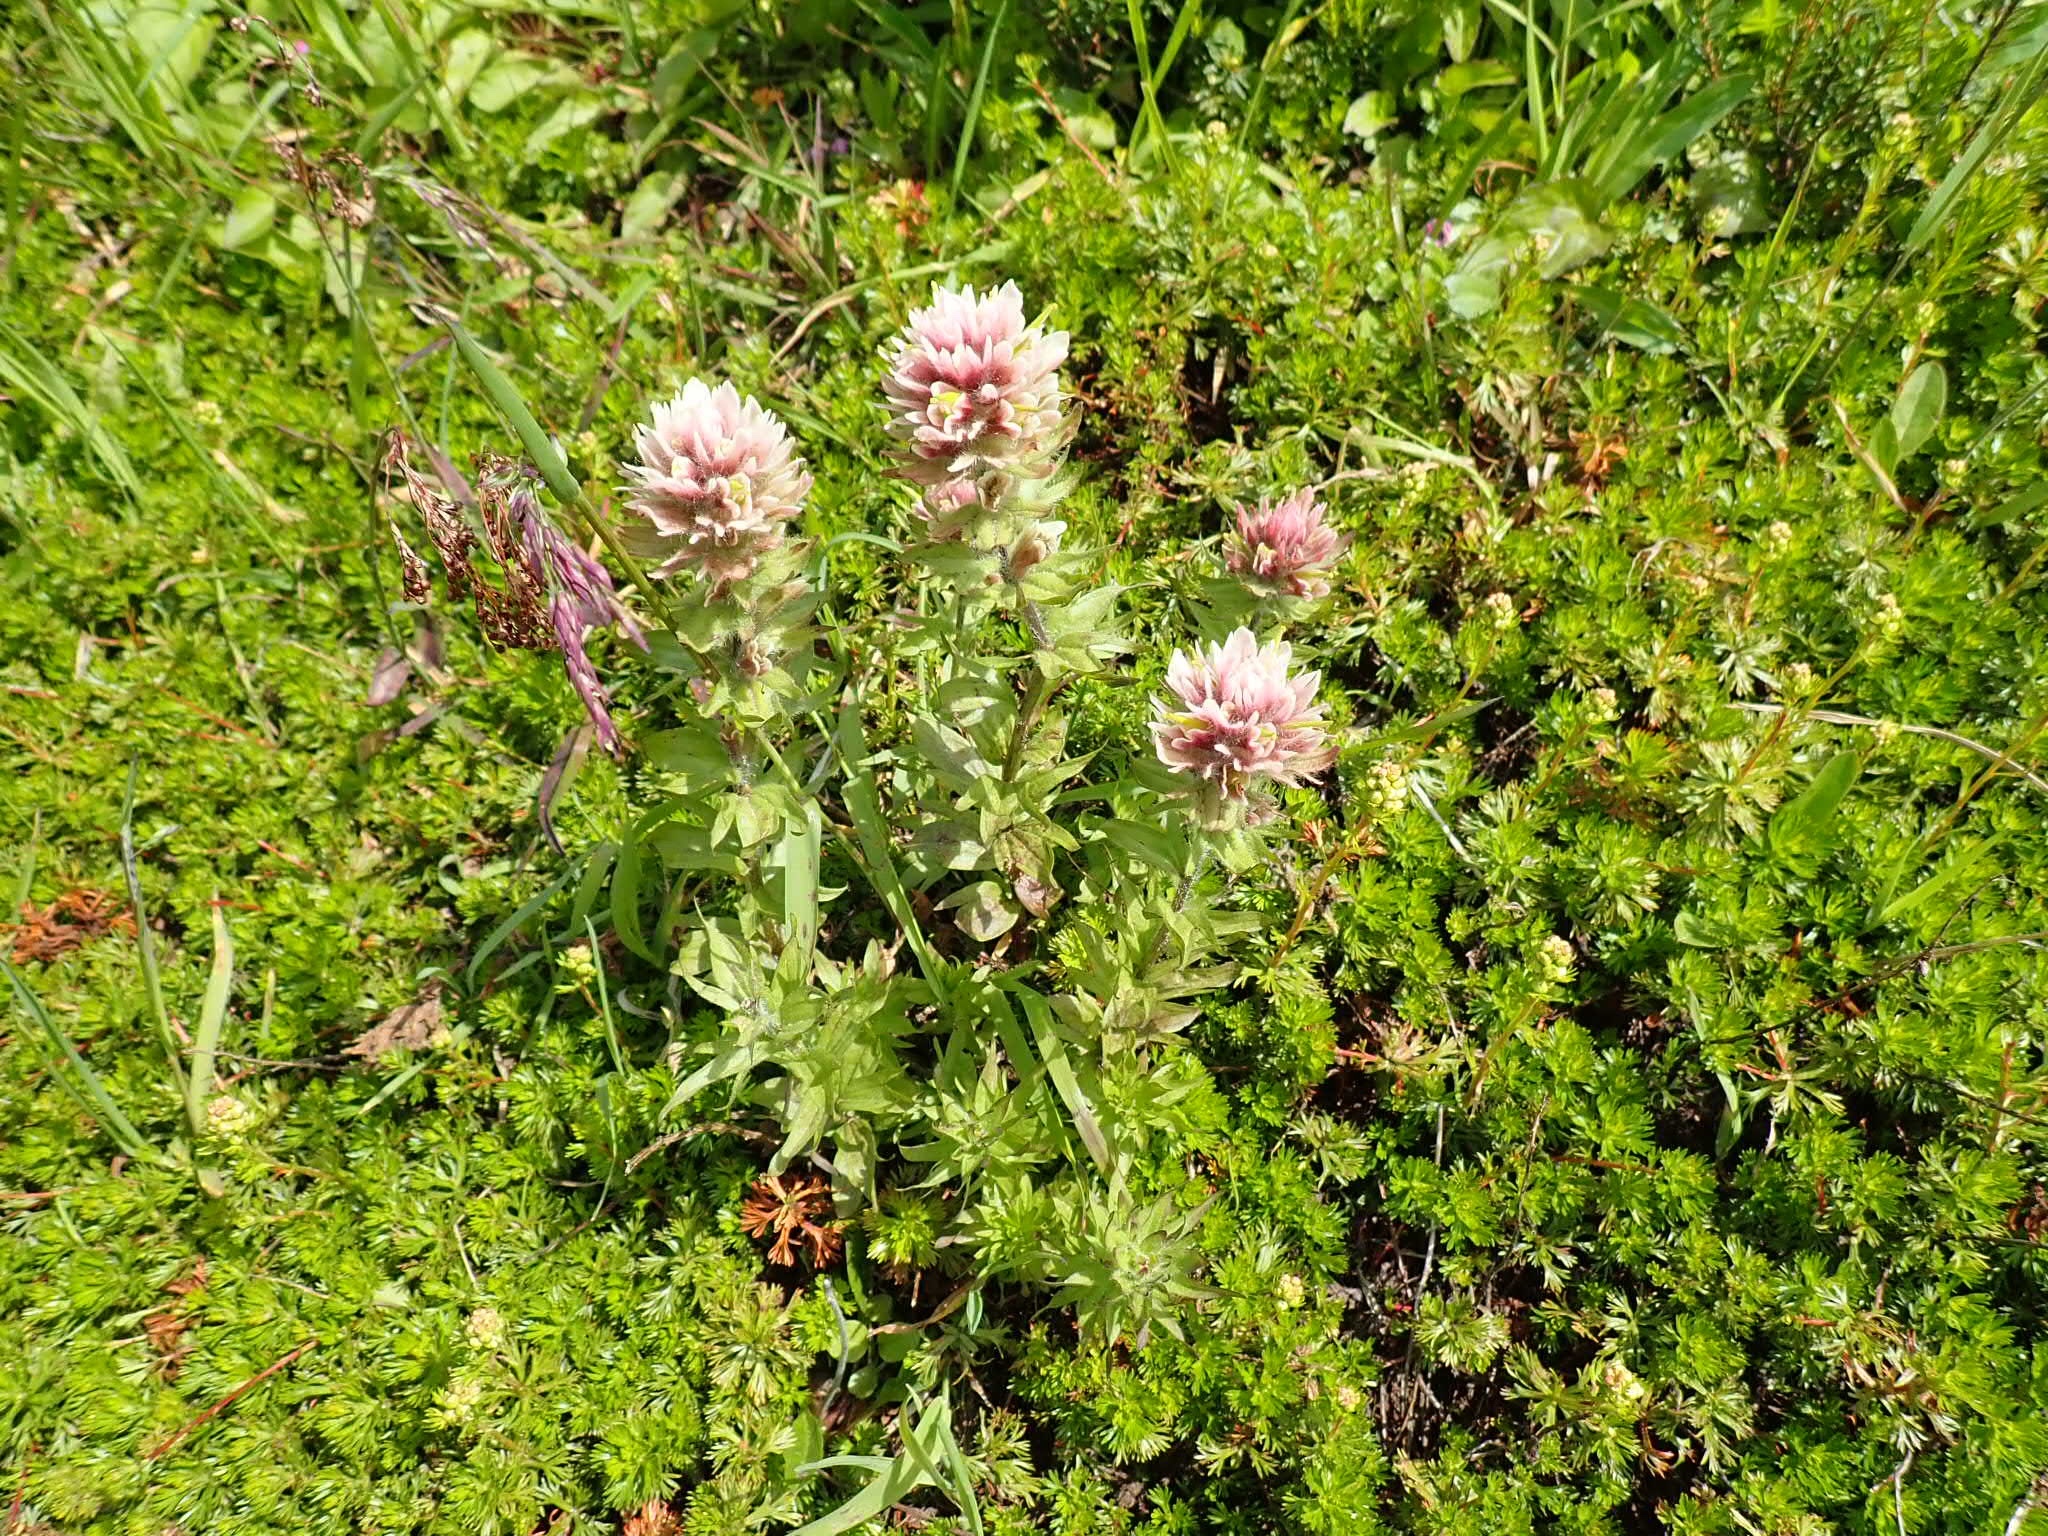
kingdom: Plantae
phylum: Tracheophyta
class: Magnoliopsida
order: Lamiales
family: Orobanchaceae
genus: Castilleja
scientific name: Castilleja parviflora
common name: Mountain paintbrush
